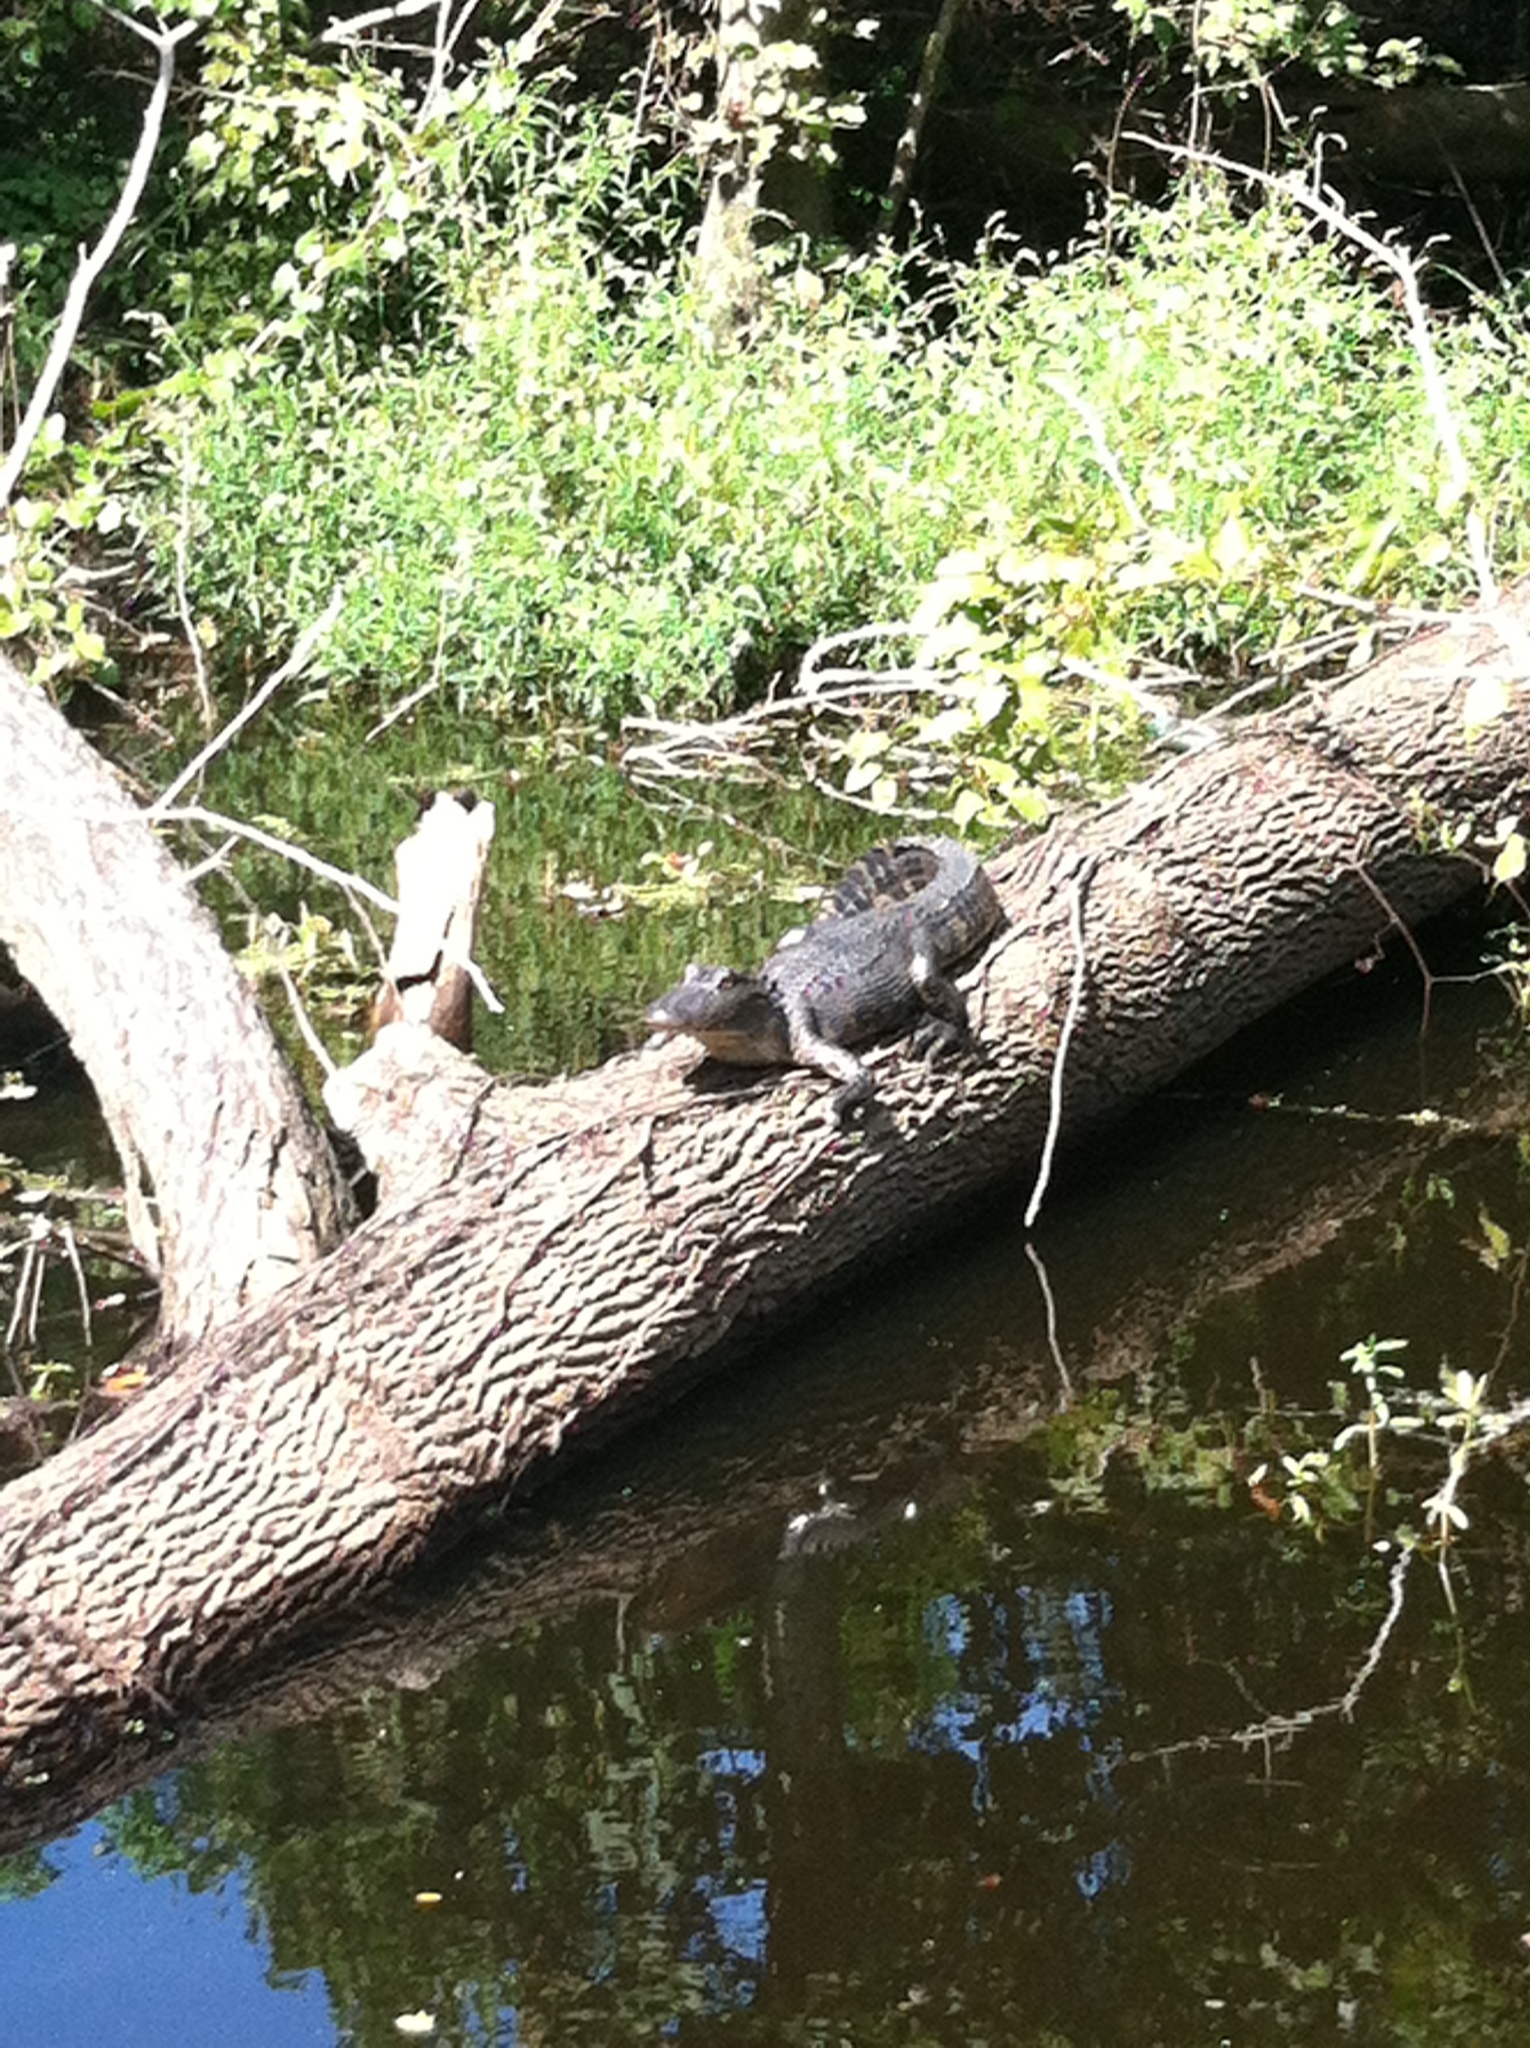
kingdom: Animalia
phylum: Chordata
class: Crocodylia
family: Alligatoridae
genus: Alligator
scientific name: Alligator mississippiensis
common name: American alligator
